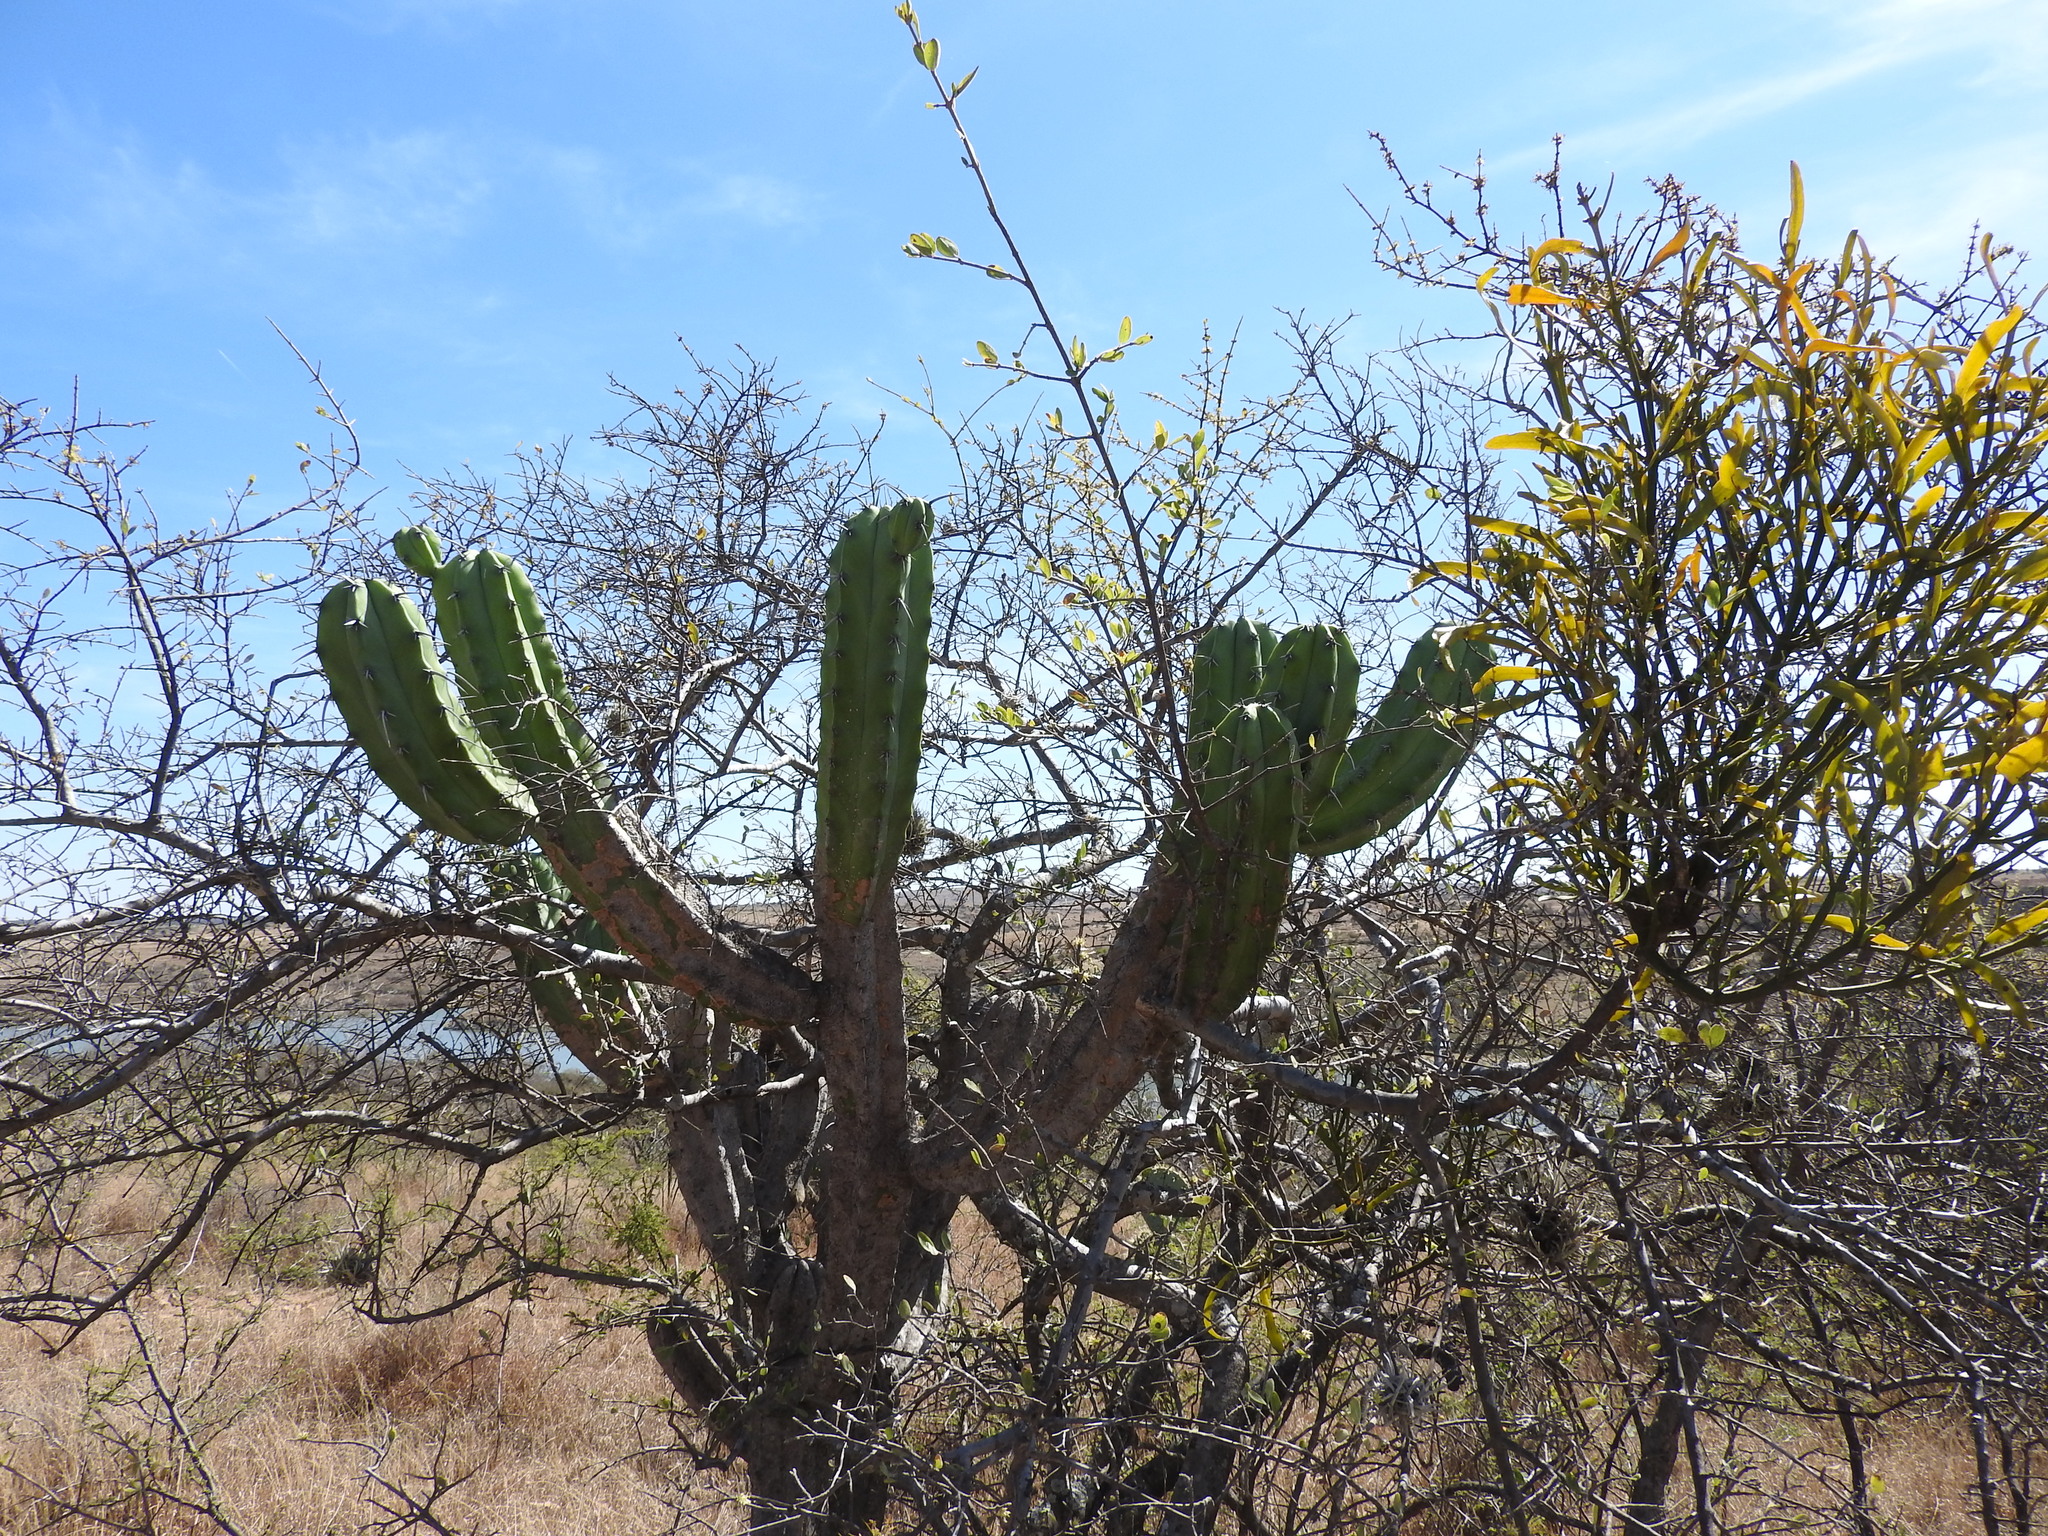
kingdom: Plantae
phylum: Tracheophyta
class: Magnoliopsida
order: Caryophyllales
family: Cactaceae
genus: Myrtillocactus
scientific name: Myrtillocactus geometrizans
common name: Bilberry cactus
